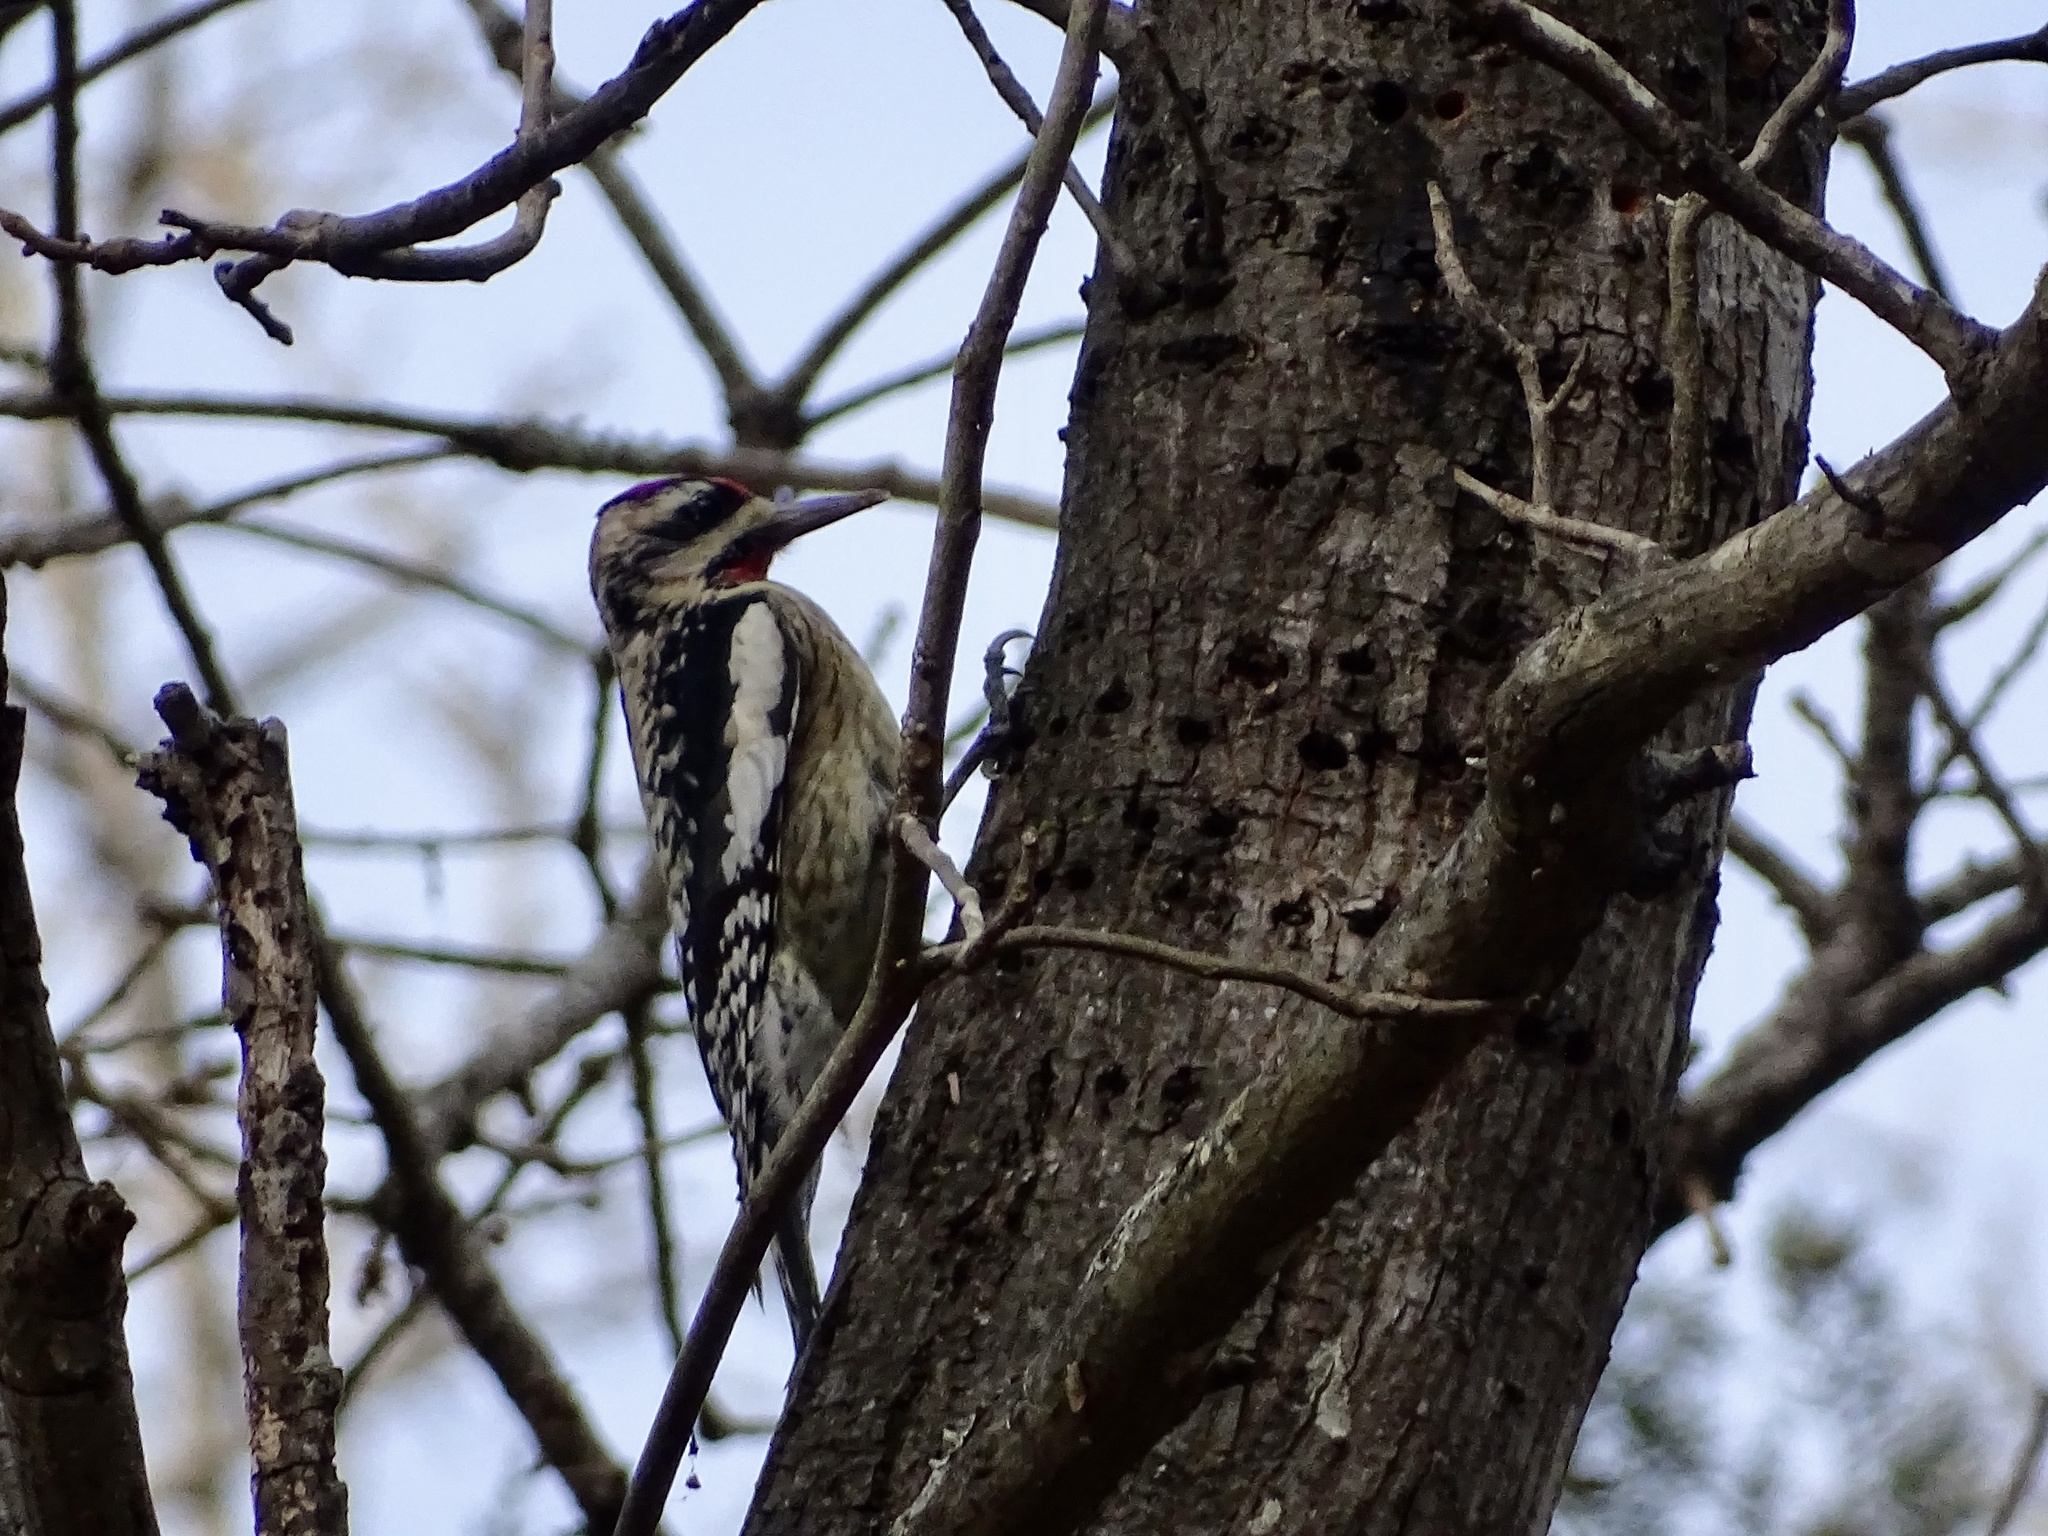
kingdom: Animalia
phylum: Chordata
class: Aves
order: Piciformes
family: Picidae
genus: Sphyrapicus
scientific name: Sphyrapicus varius
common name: Yellow-bellied sapsucker
